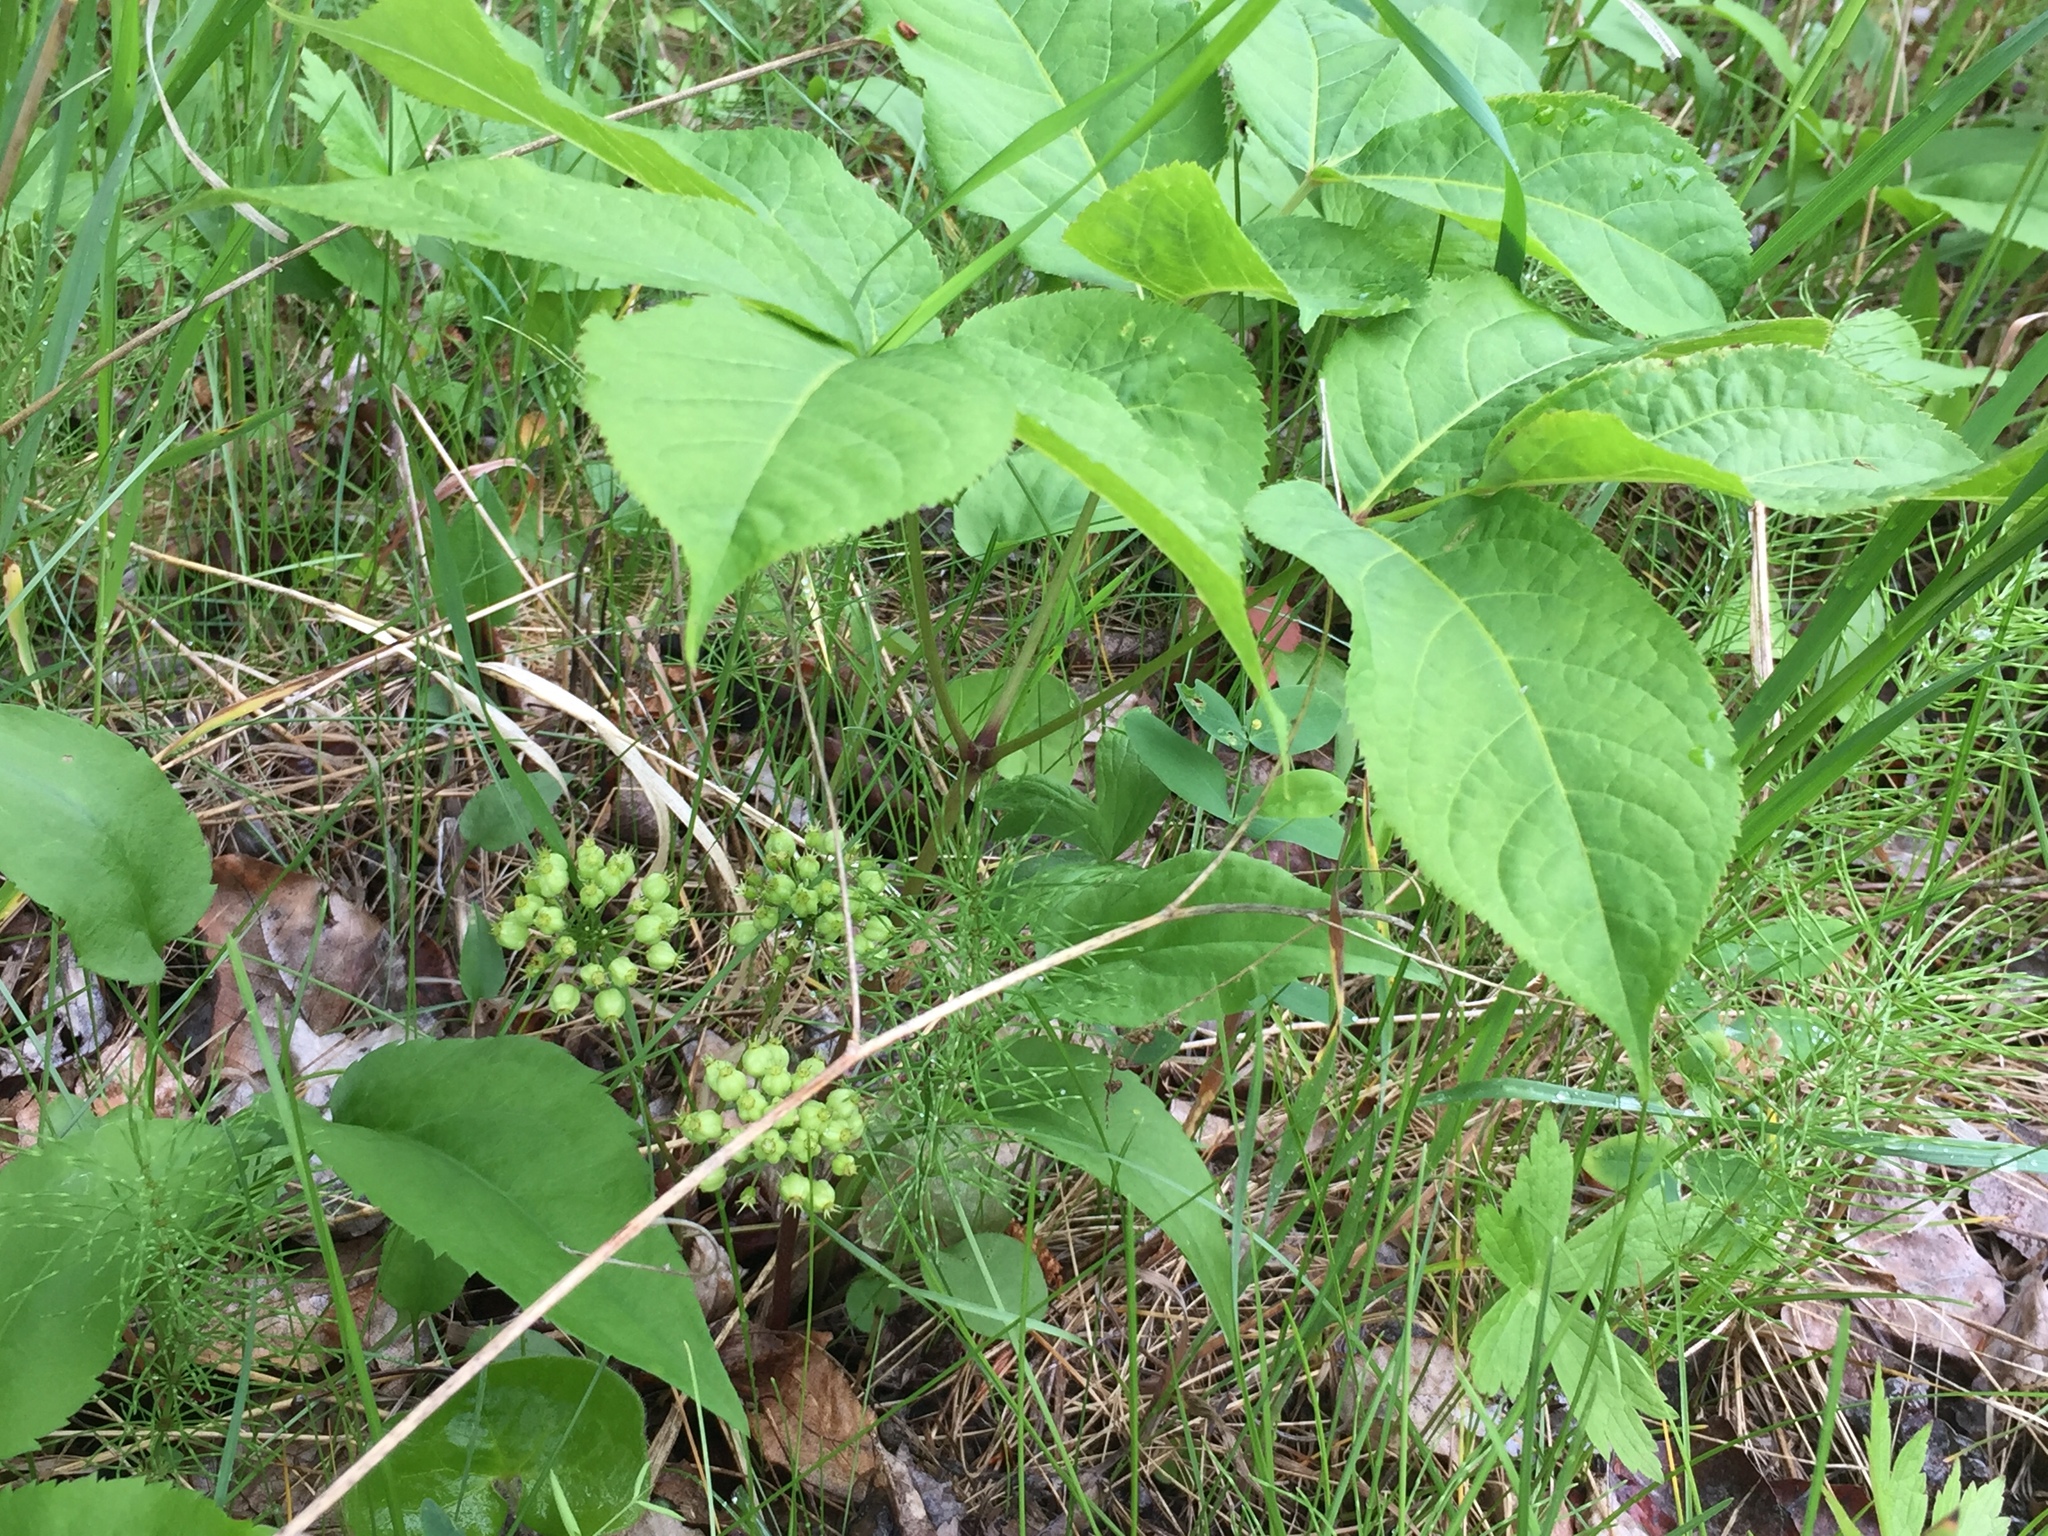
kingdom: Plantae
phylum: Tracheophyta
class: Magnoliopsida
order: Apiales
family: Araliaceae
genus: Aralia
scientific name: Aralia nudicaulis
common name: Wild sarsaparilla
